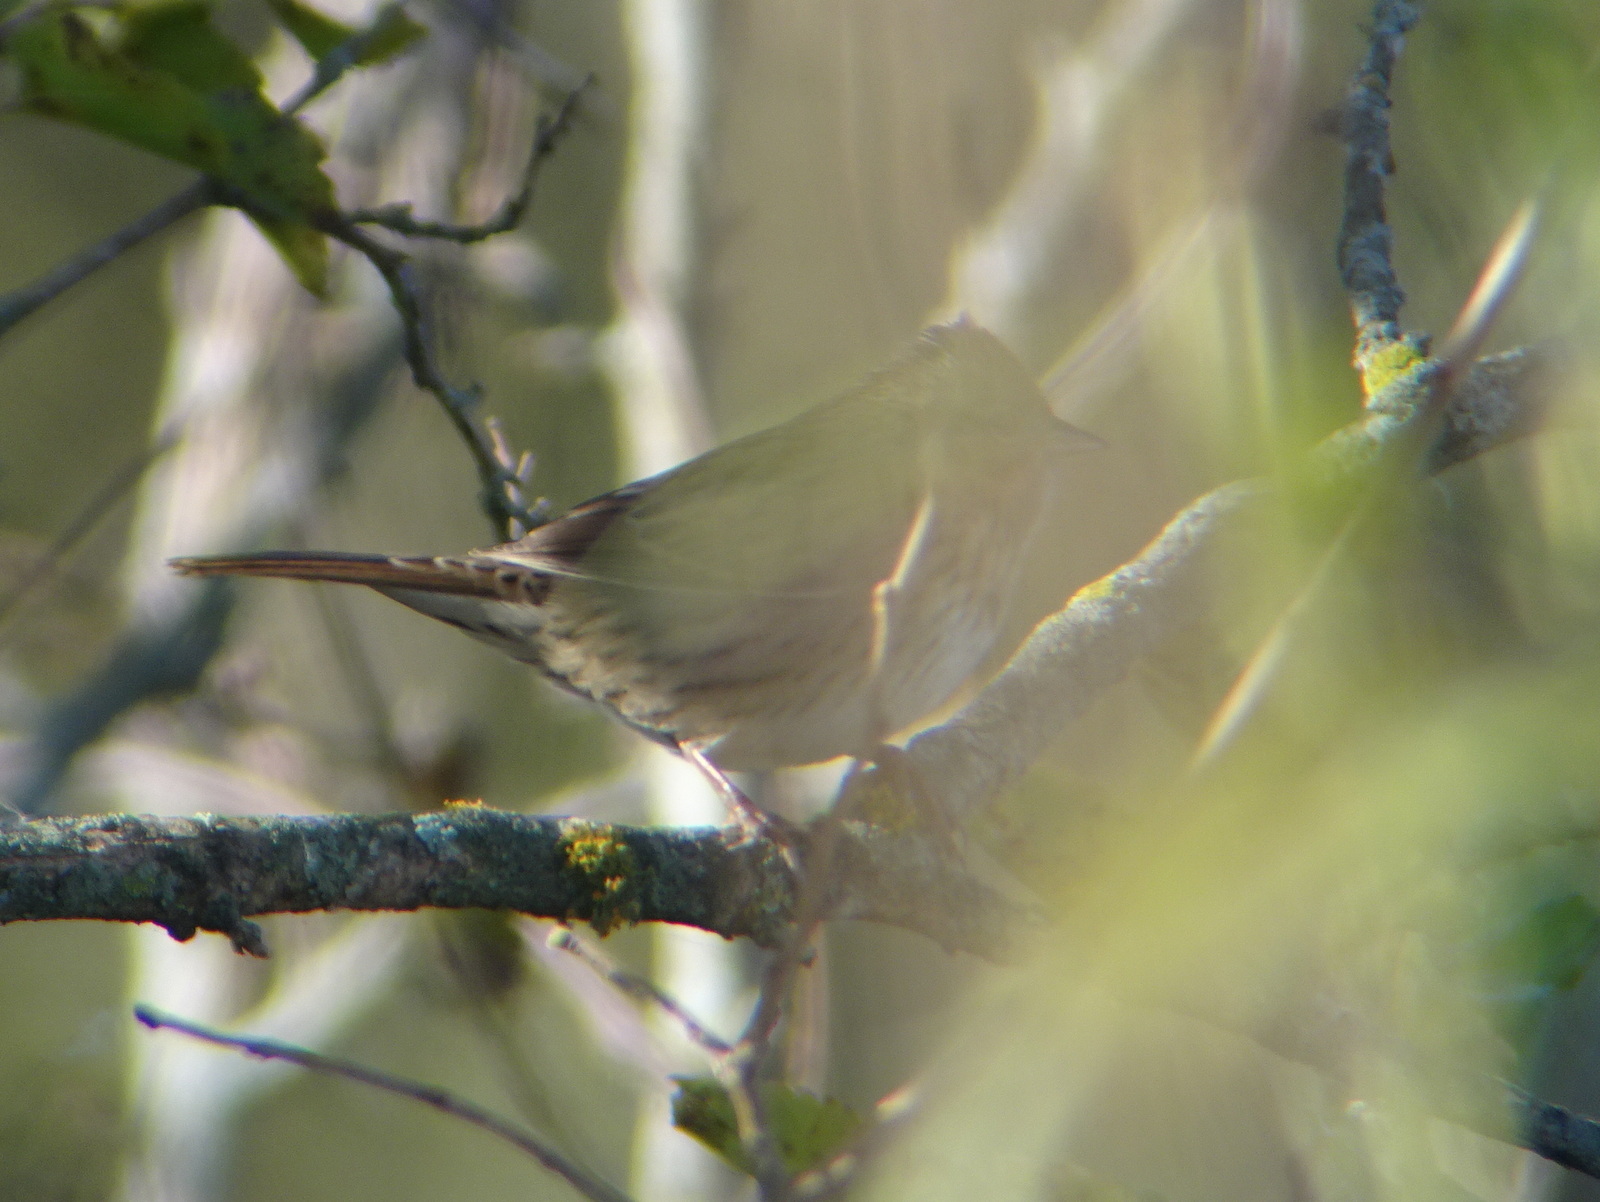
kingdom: Animalia
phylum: Chordata
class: Aves
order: Passeriformes
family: Passerellidae
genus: Melospiza
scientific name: Melospiza lincolnii
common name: Lincoln's sparrow
